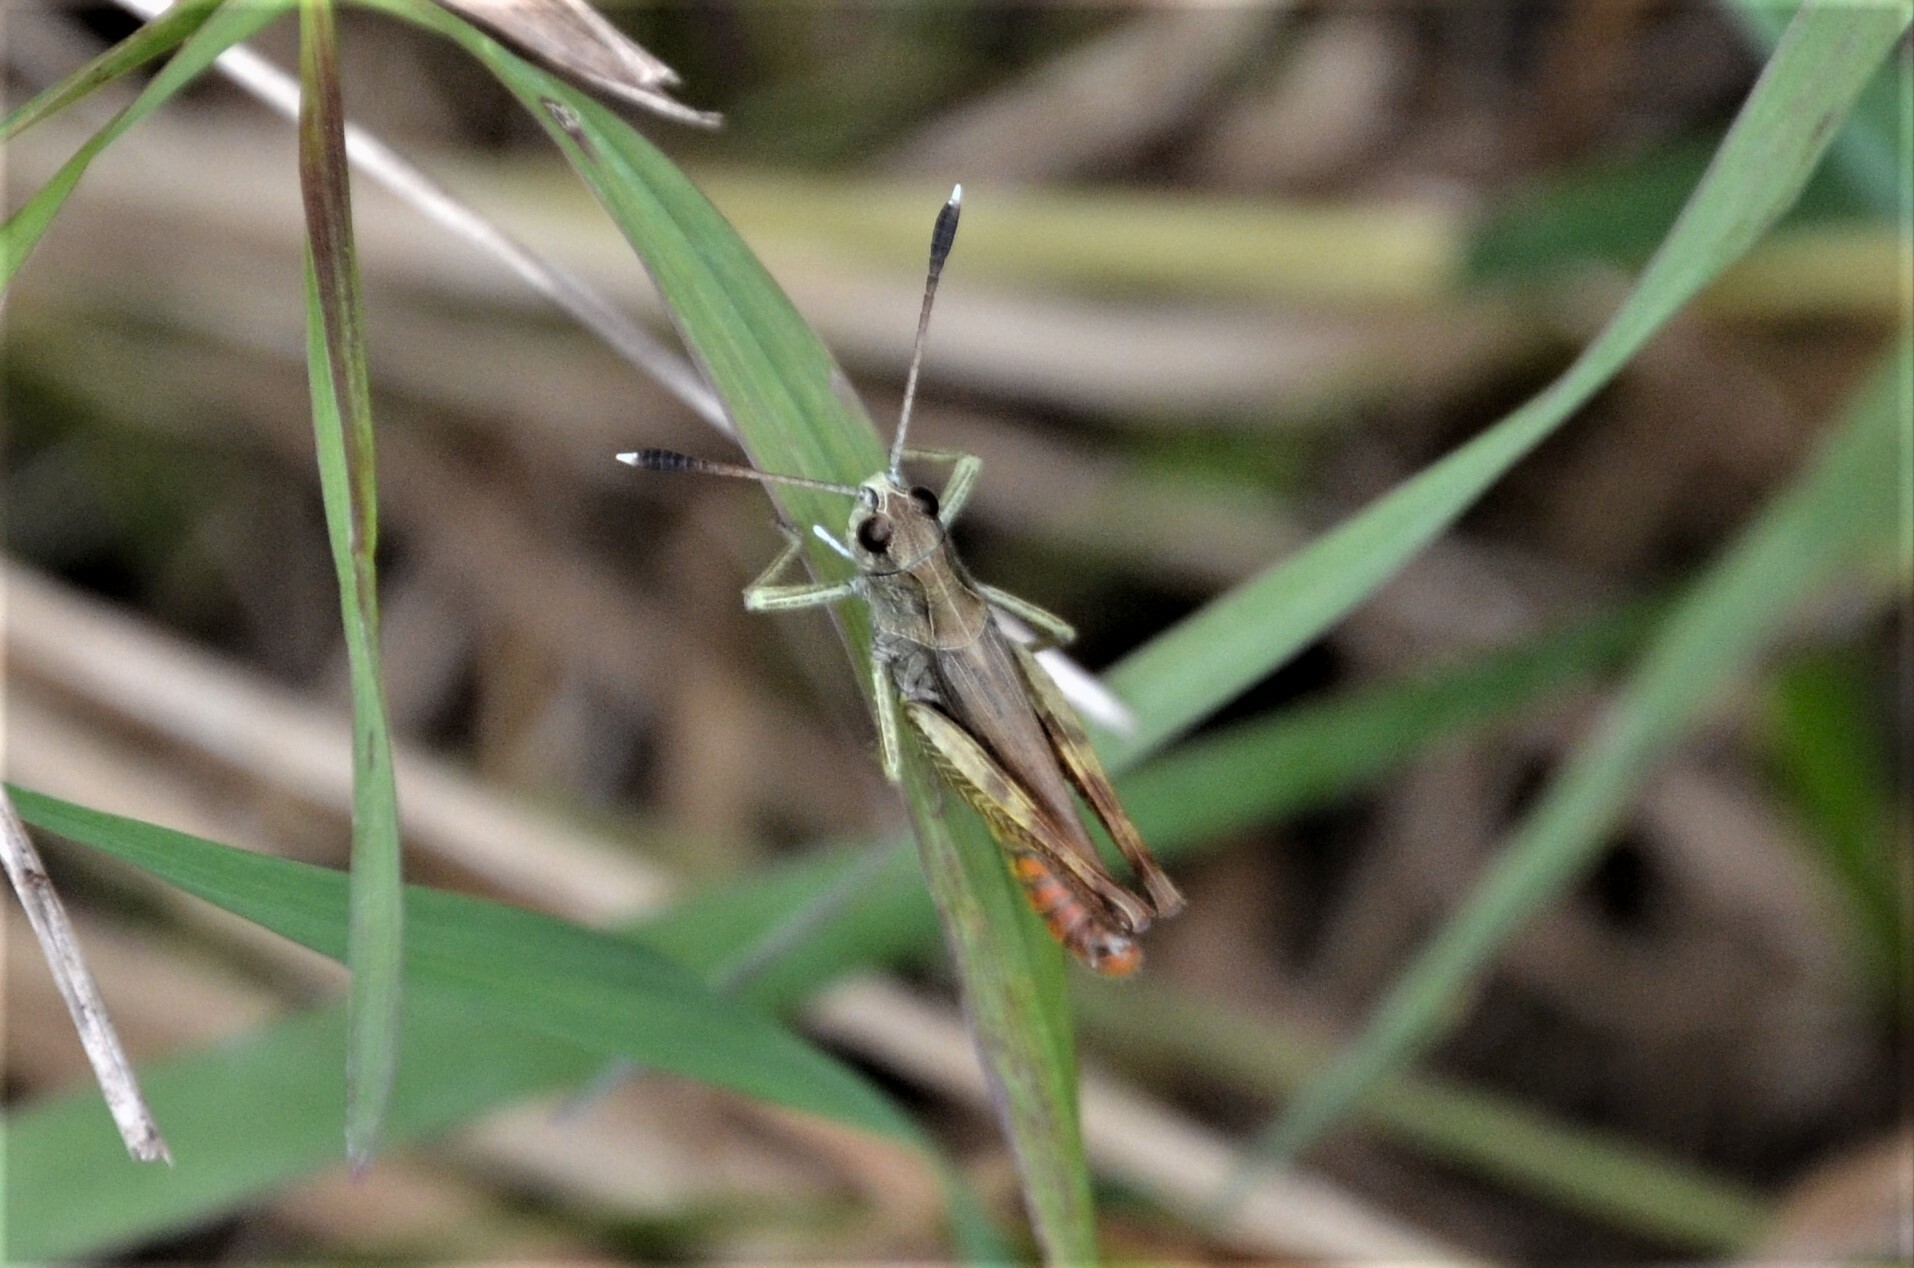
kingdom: Animalia
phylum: Arthropoda
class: Insecta
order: Orthoptera
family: Acrididae
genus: Gomphocerippus
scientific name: Gomphocerippus rufus
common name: Rufous grasshopper
